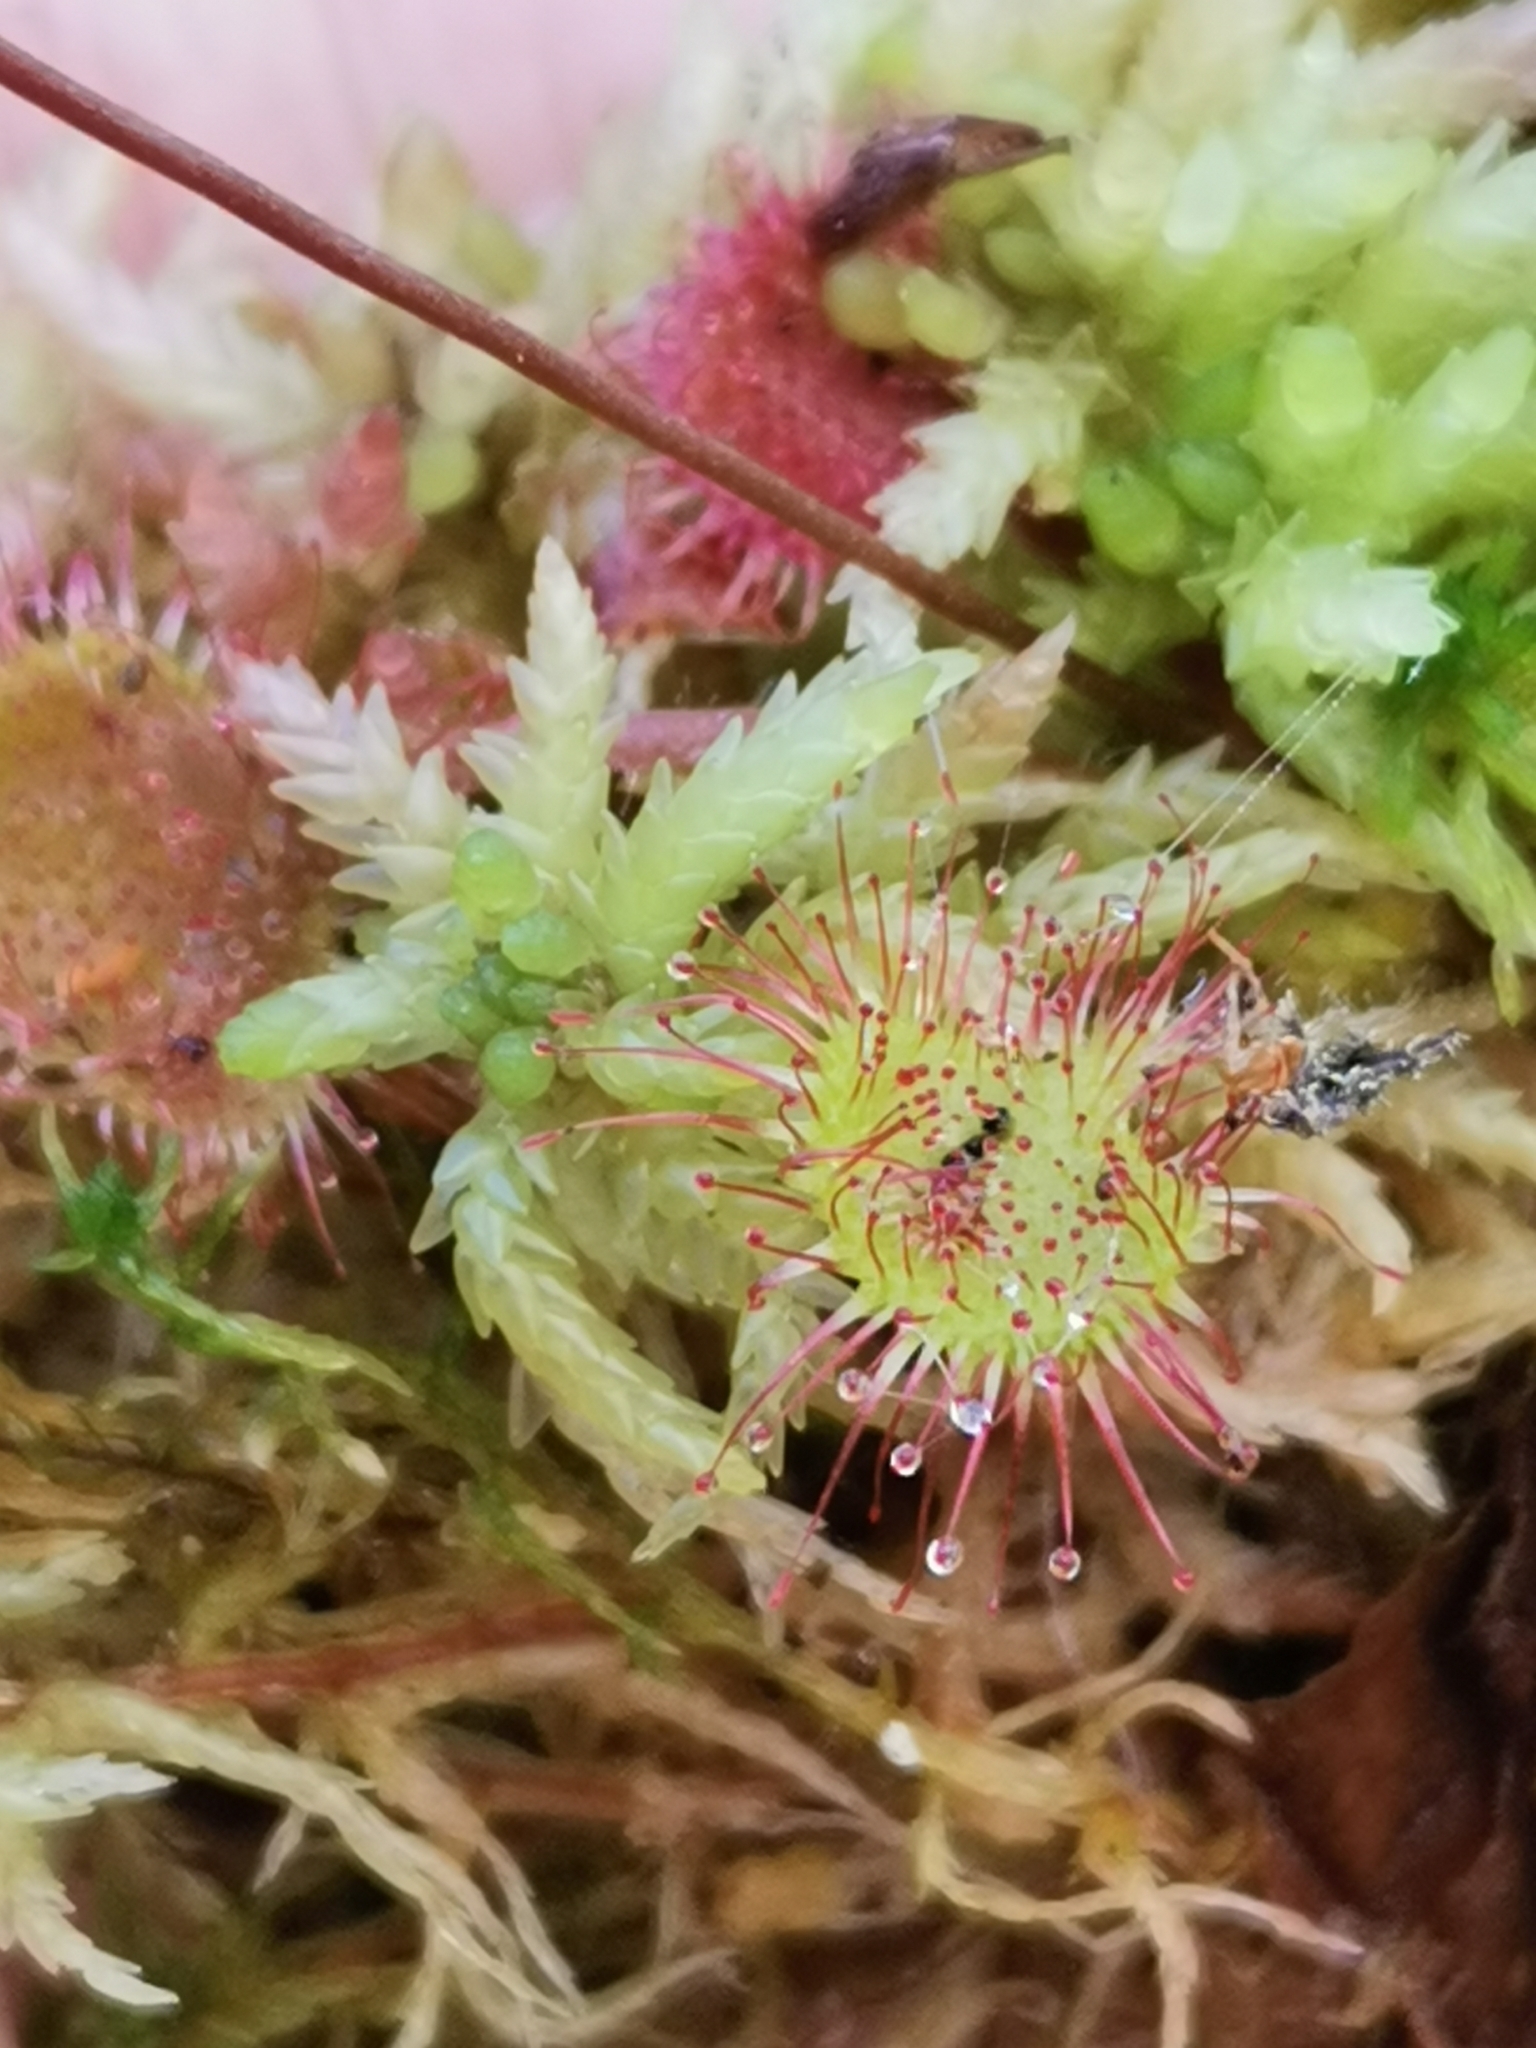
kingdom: Plantae
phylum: Tracheophyta
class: Magnoliopsida
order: Caryophyllales
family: Droseraceae
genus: Drosera
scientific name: Drosera rotundifolia
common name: Round-leaved sundew
